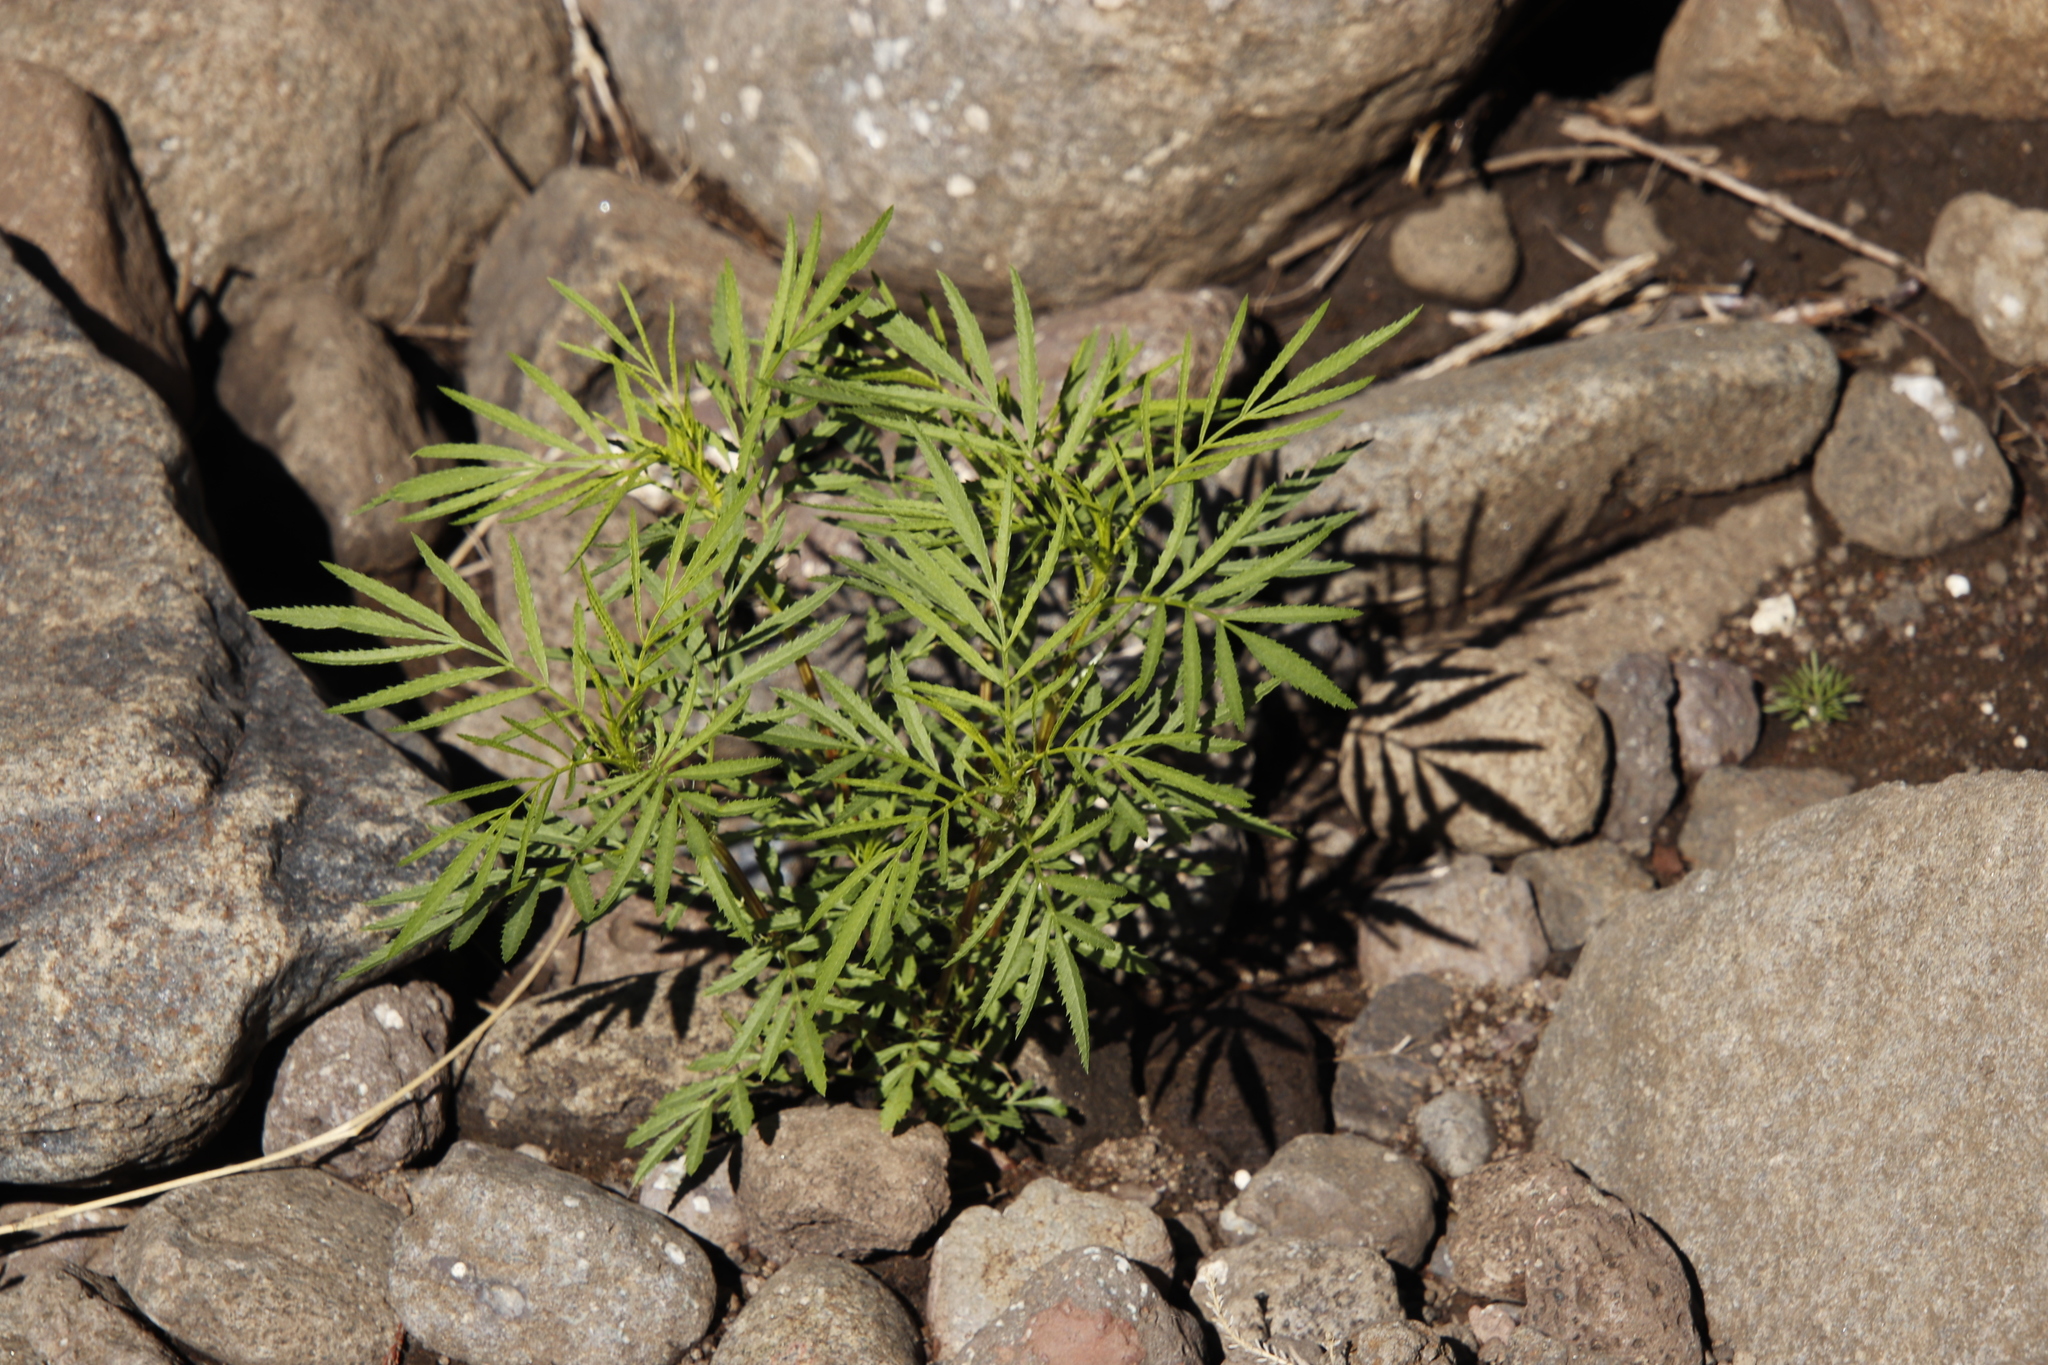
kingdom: Plantae
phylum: Tracheophyta
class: Magnoliopsida
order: Asterales
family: Asteraceae
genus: Tagetes
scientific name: Tagetes minuta
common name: Muster john henry
